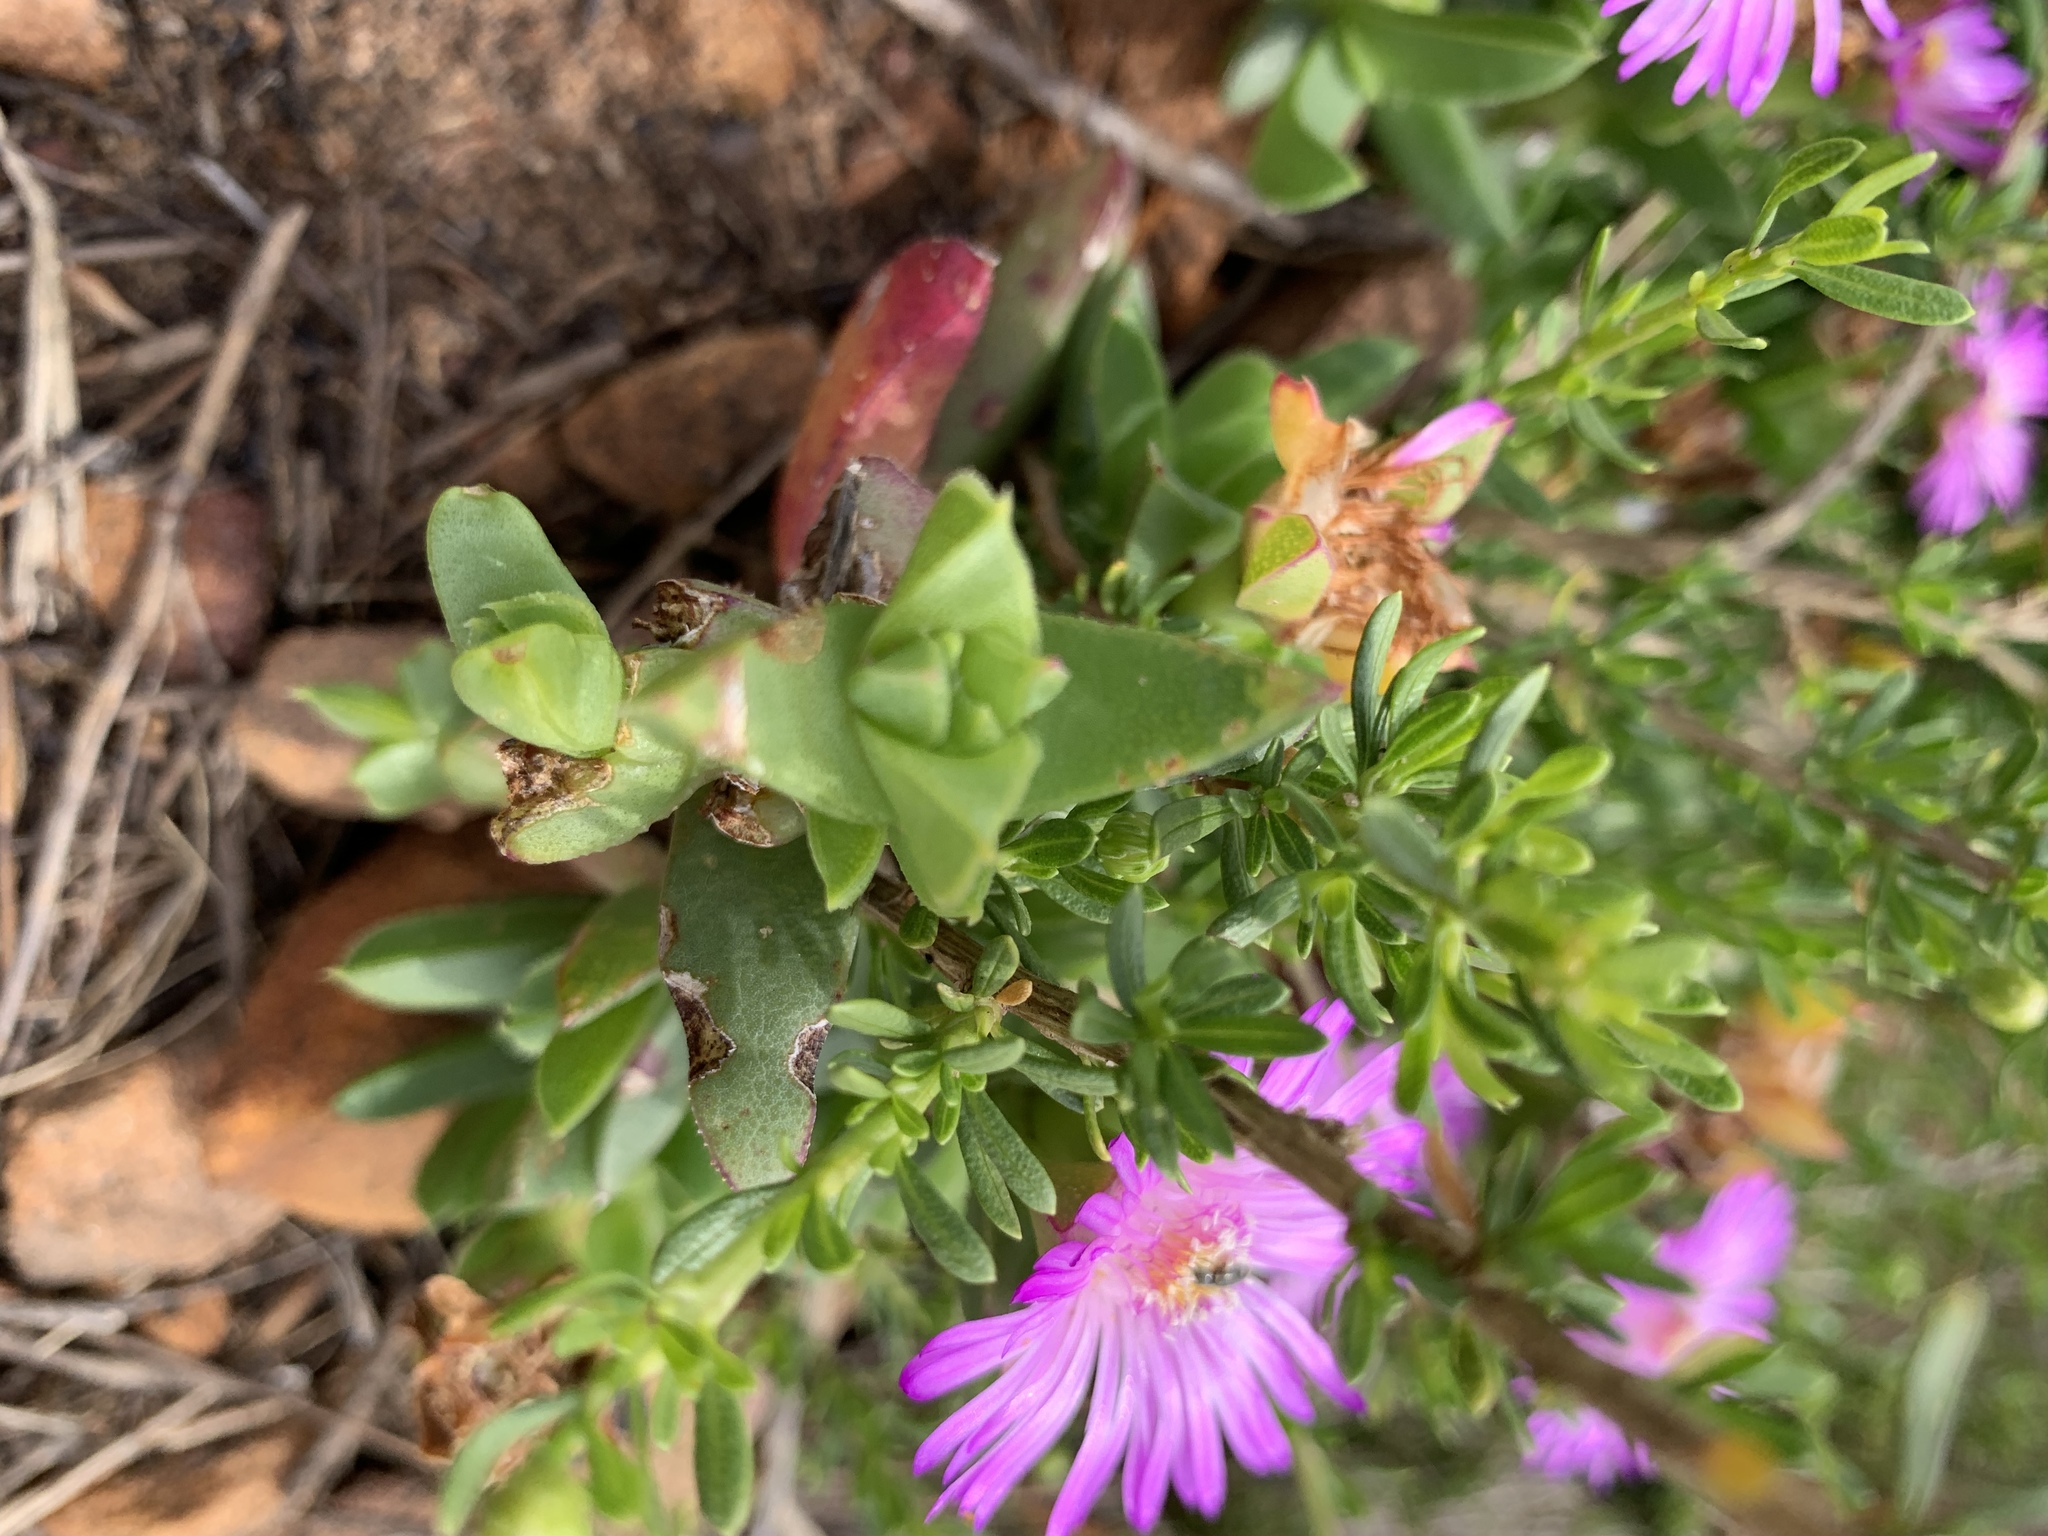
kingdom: Plantae
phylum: Tracheophyta
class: Magnoliopsida
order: Caryophyllales
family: Aizoaceae
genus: Amphibolia
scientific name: Amphibolia laevis
